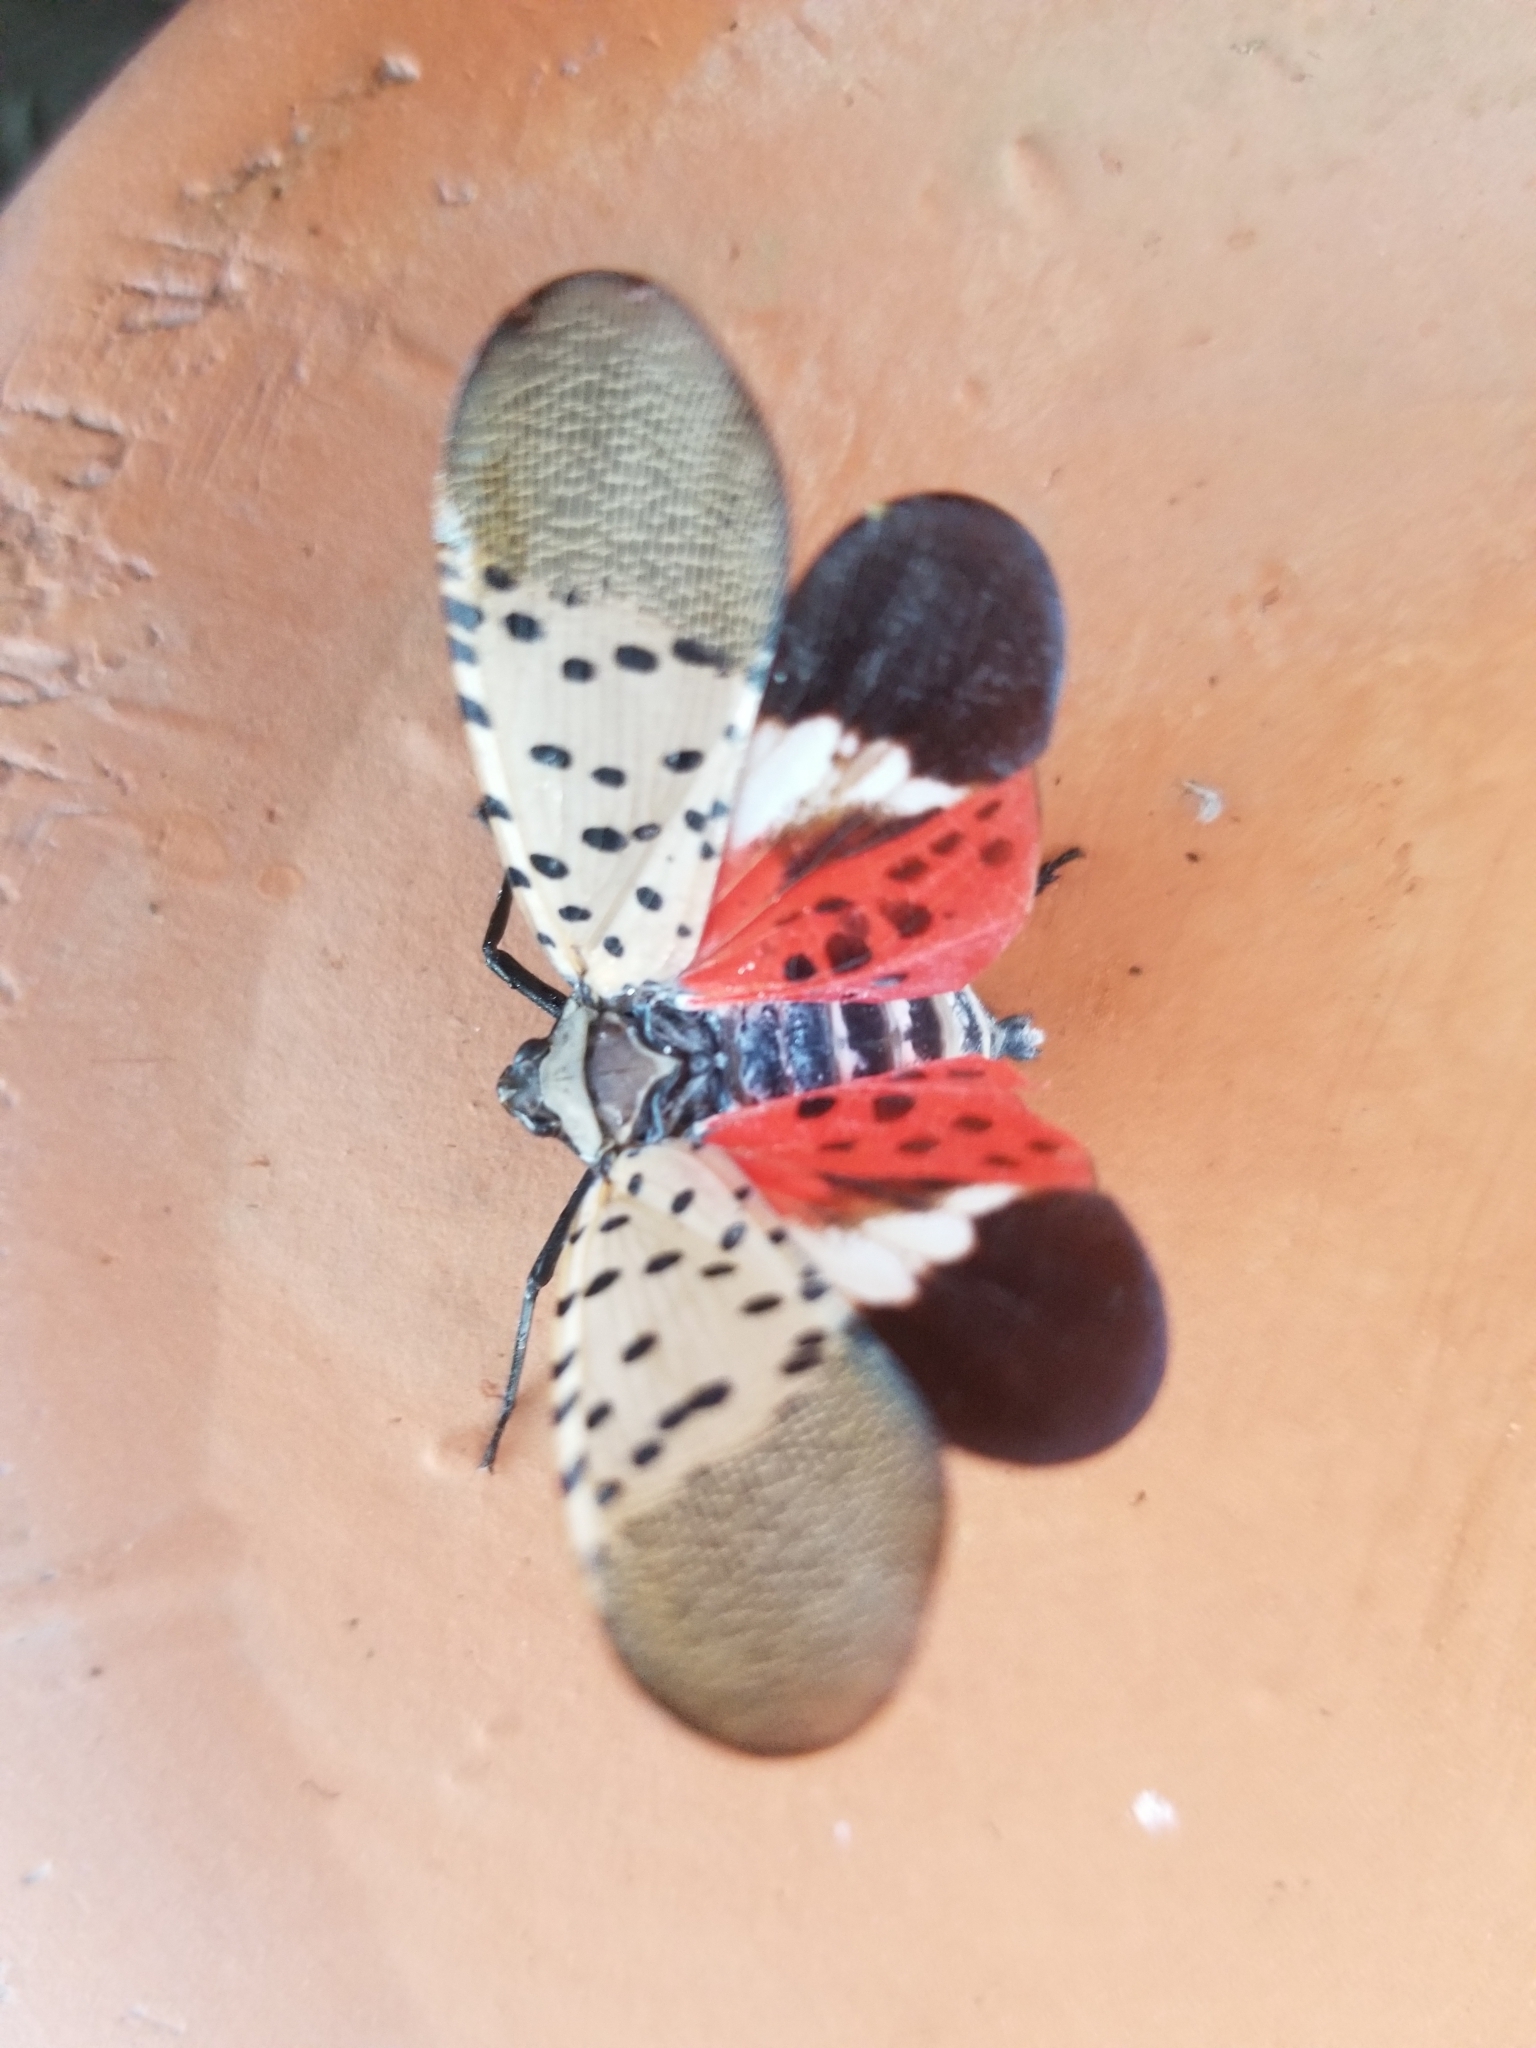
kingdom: Animalia
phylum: Arthropoda
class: Insecta
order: Hemiptera
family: Fulgoridae
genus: Lycorma
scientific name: Lycorma delicatula
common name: Spotted lanternfly
